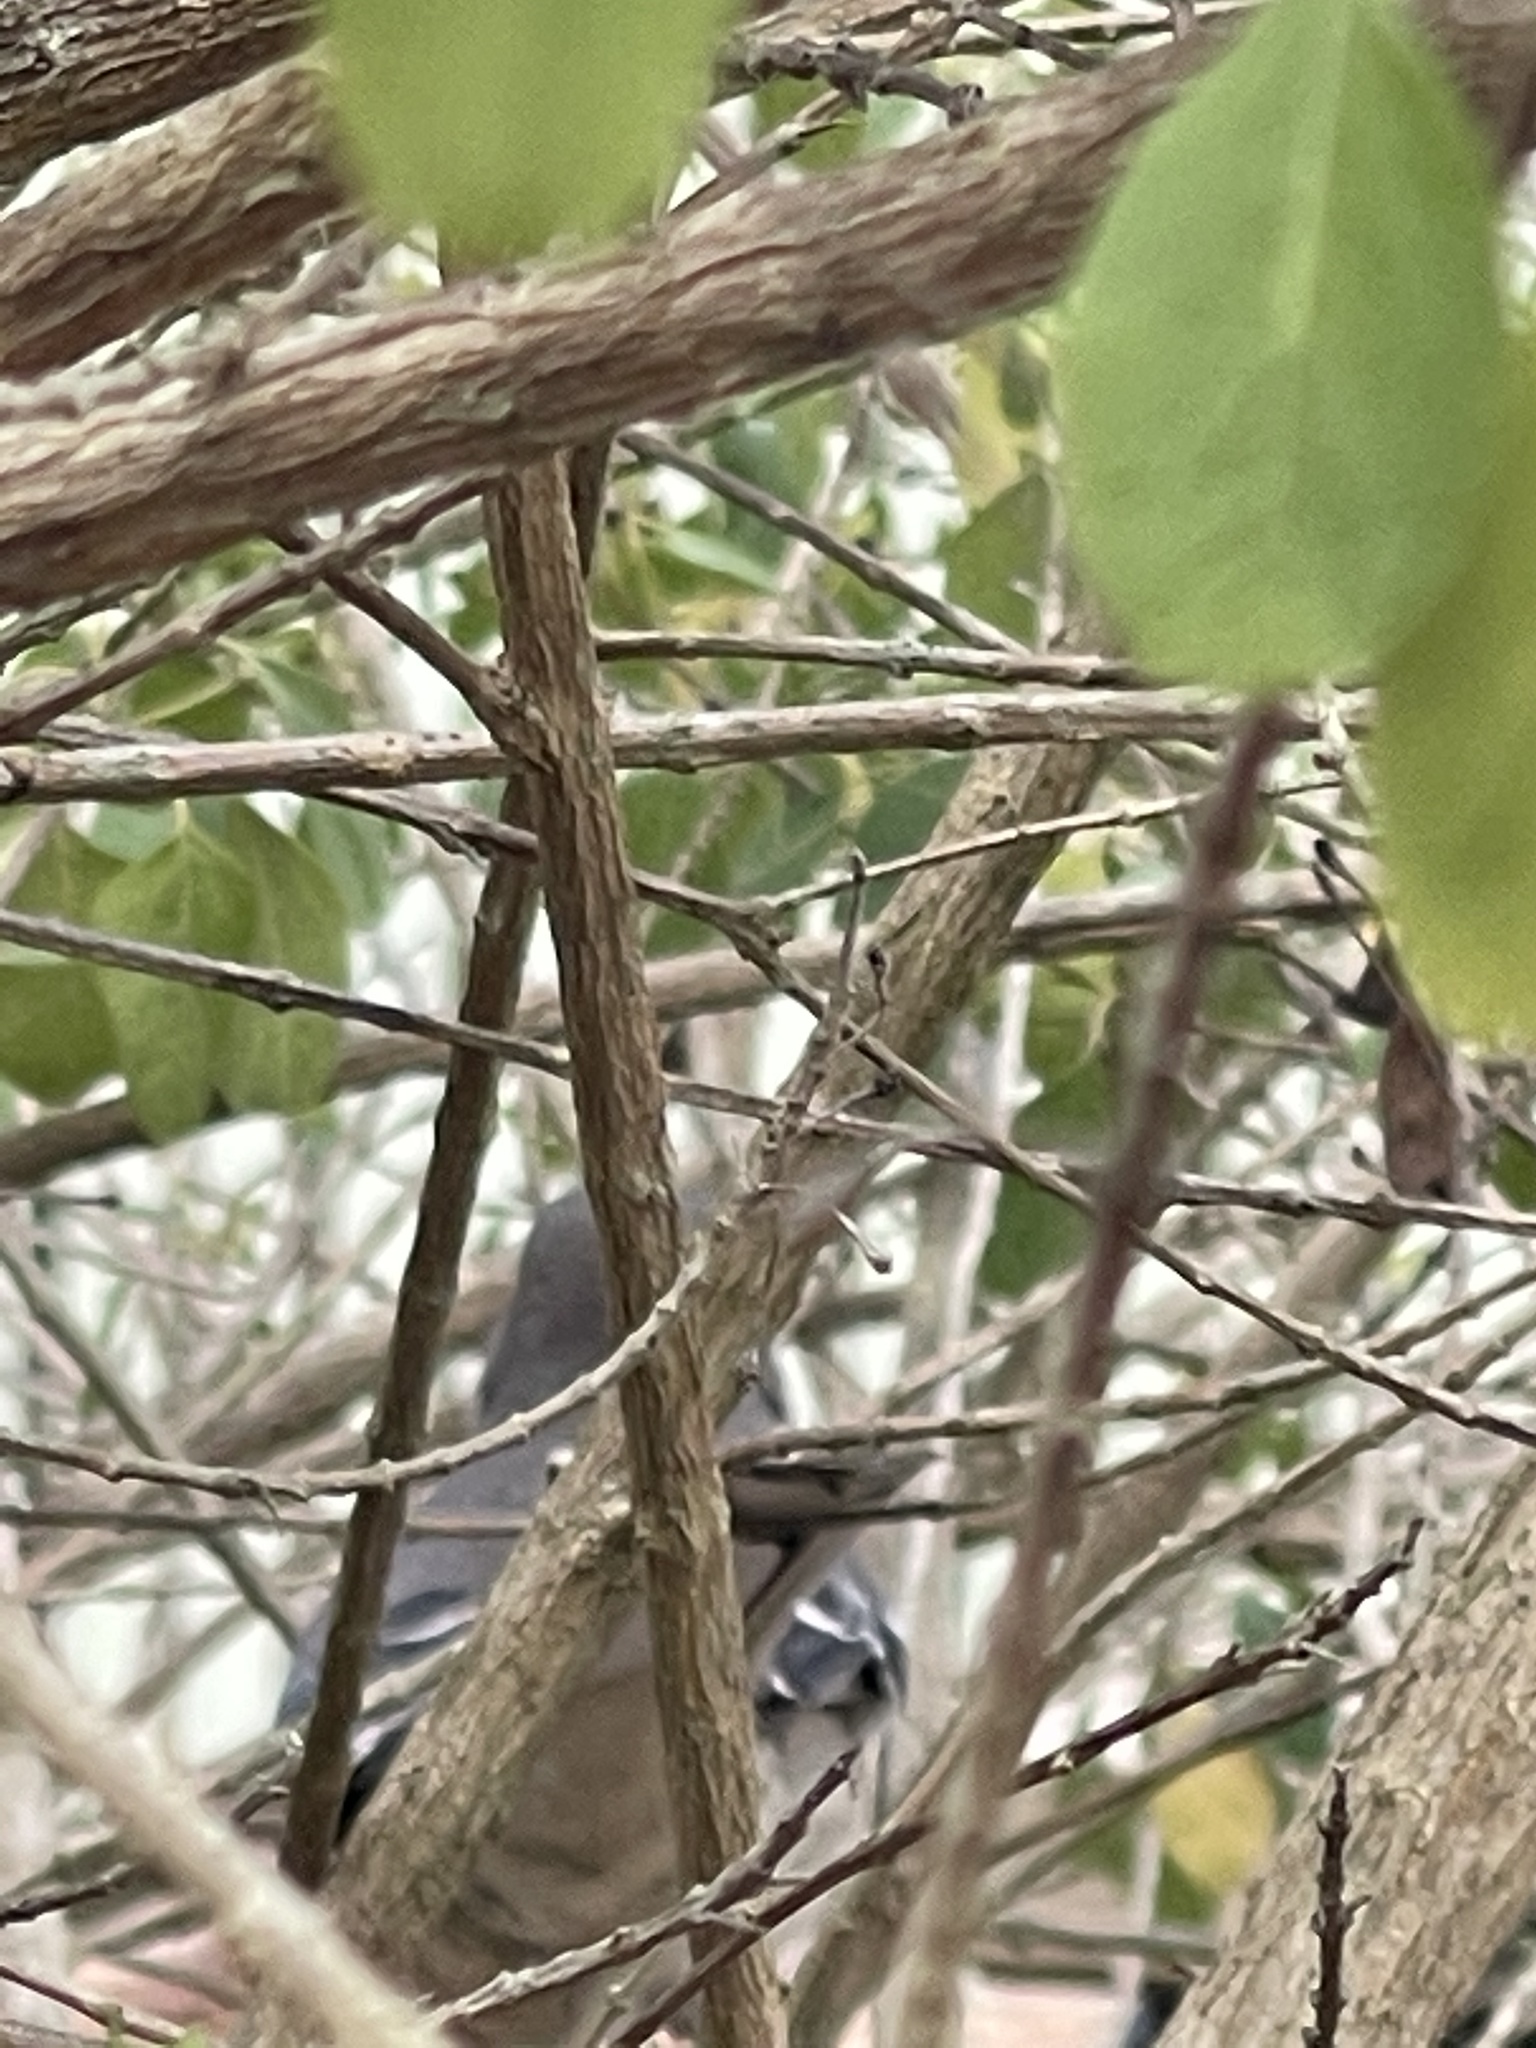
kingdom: Animalia
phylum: Chordata
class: Aves
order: Passeriformes
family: Mimidae
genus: Mimus
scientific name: Mimus polyglottos
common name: Northern mockingbird
